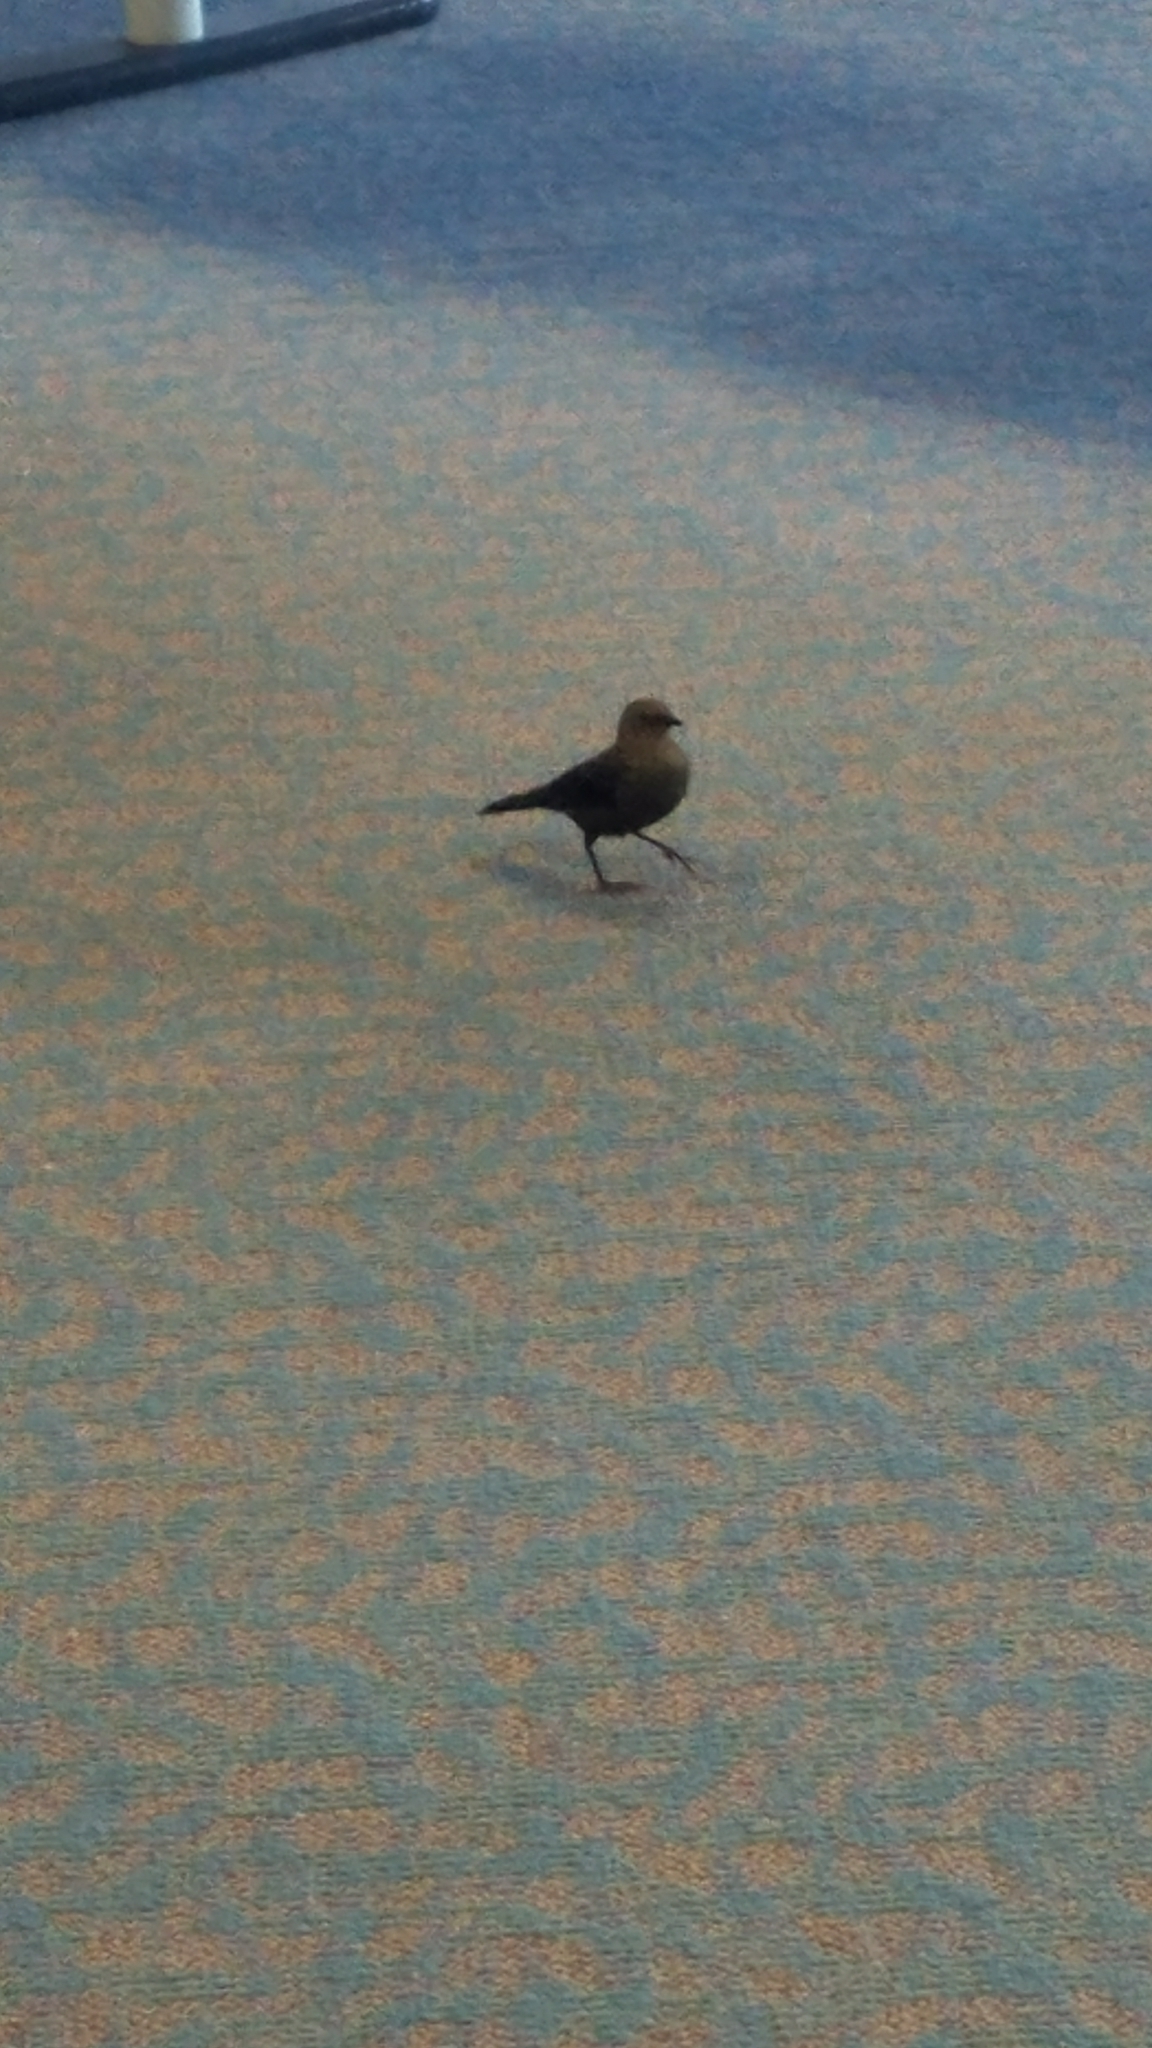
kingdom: Animalia
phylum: Chordata
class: Aves
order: Passeriformes
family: Icteridae
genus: Euphagus
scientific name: Euphagus cyanocephalus
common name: Brewer's blackbird
